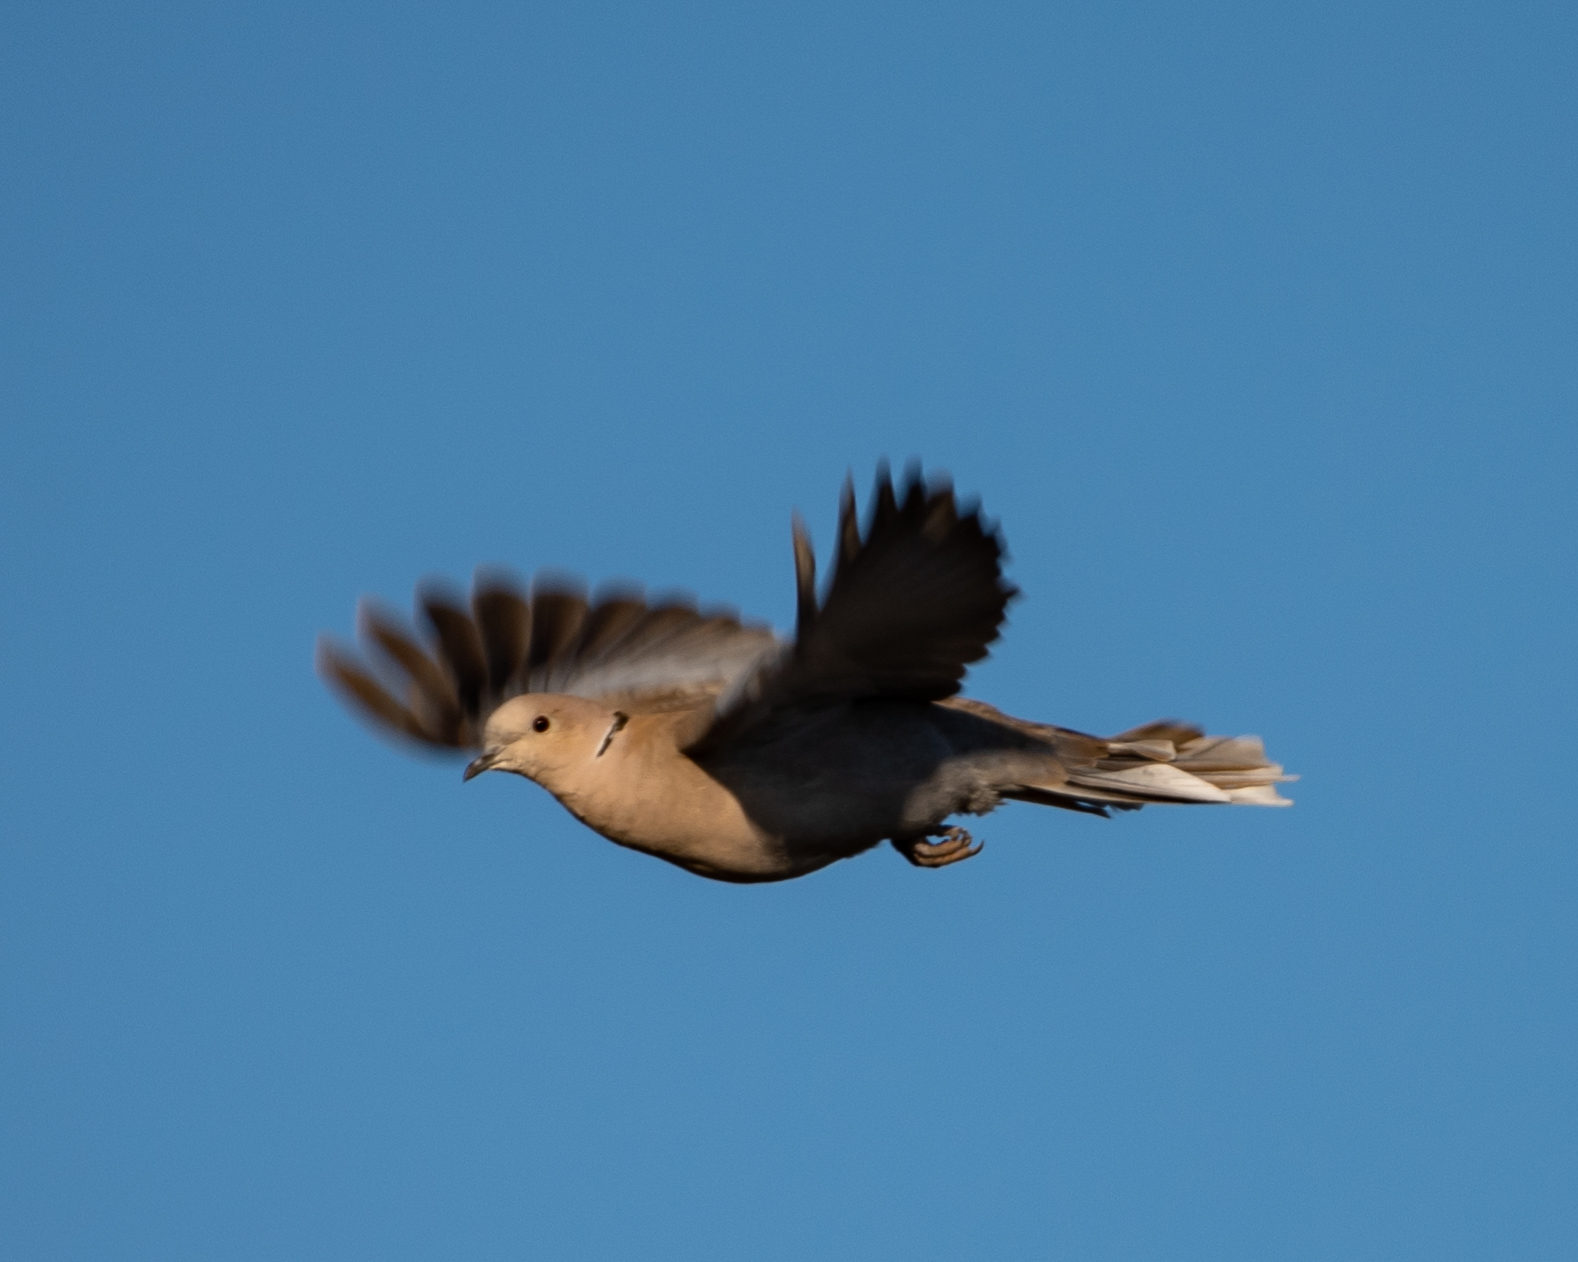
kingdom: Animalia
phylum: Chordata
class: Aves
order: Columbiformes
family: Columbidae
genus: Streptopelia
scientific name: Streptopelia decaocto
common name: Eurasian collared dove
